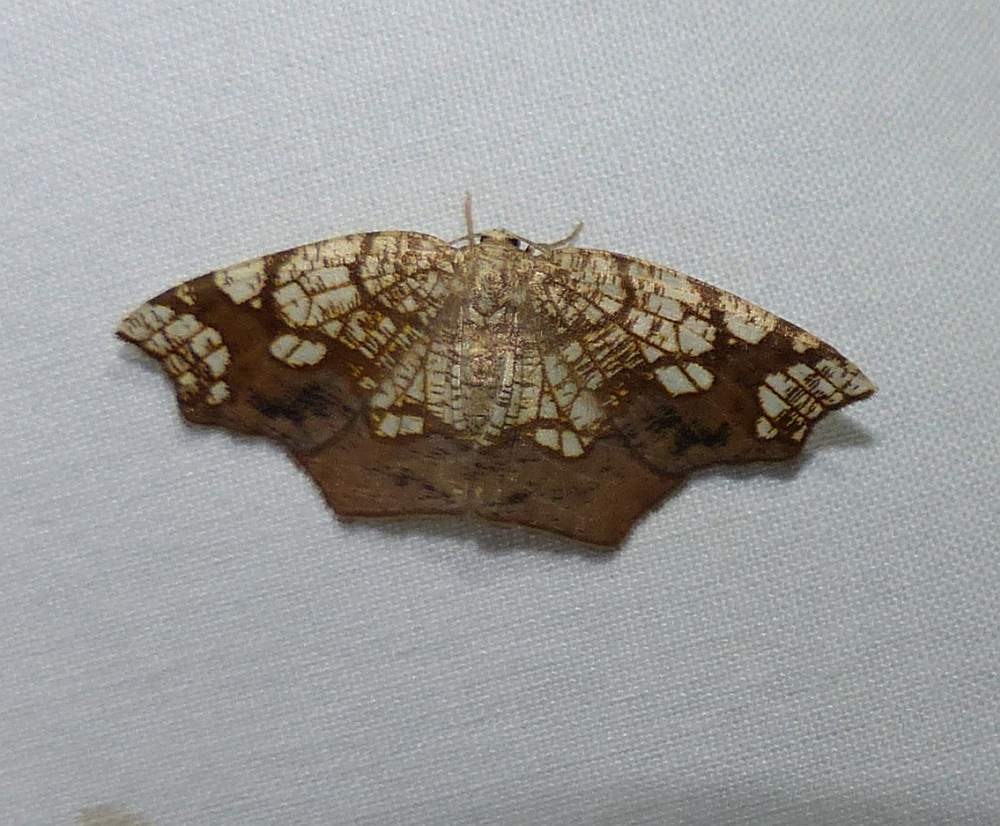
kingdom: Animalia
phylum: Arthropoda
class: Insecta
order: Lepidoptera
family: Geometridae
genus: Nematocampa
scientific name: Nematocampa resistaria
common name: Horned spanworm moth
